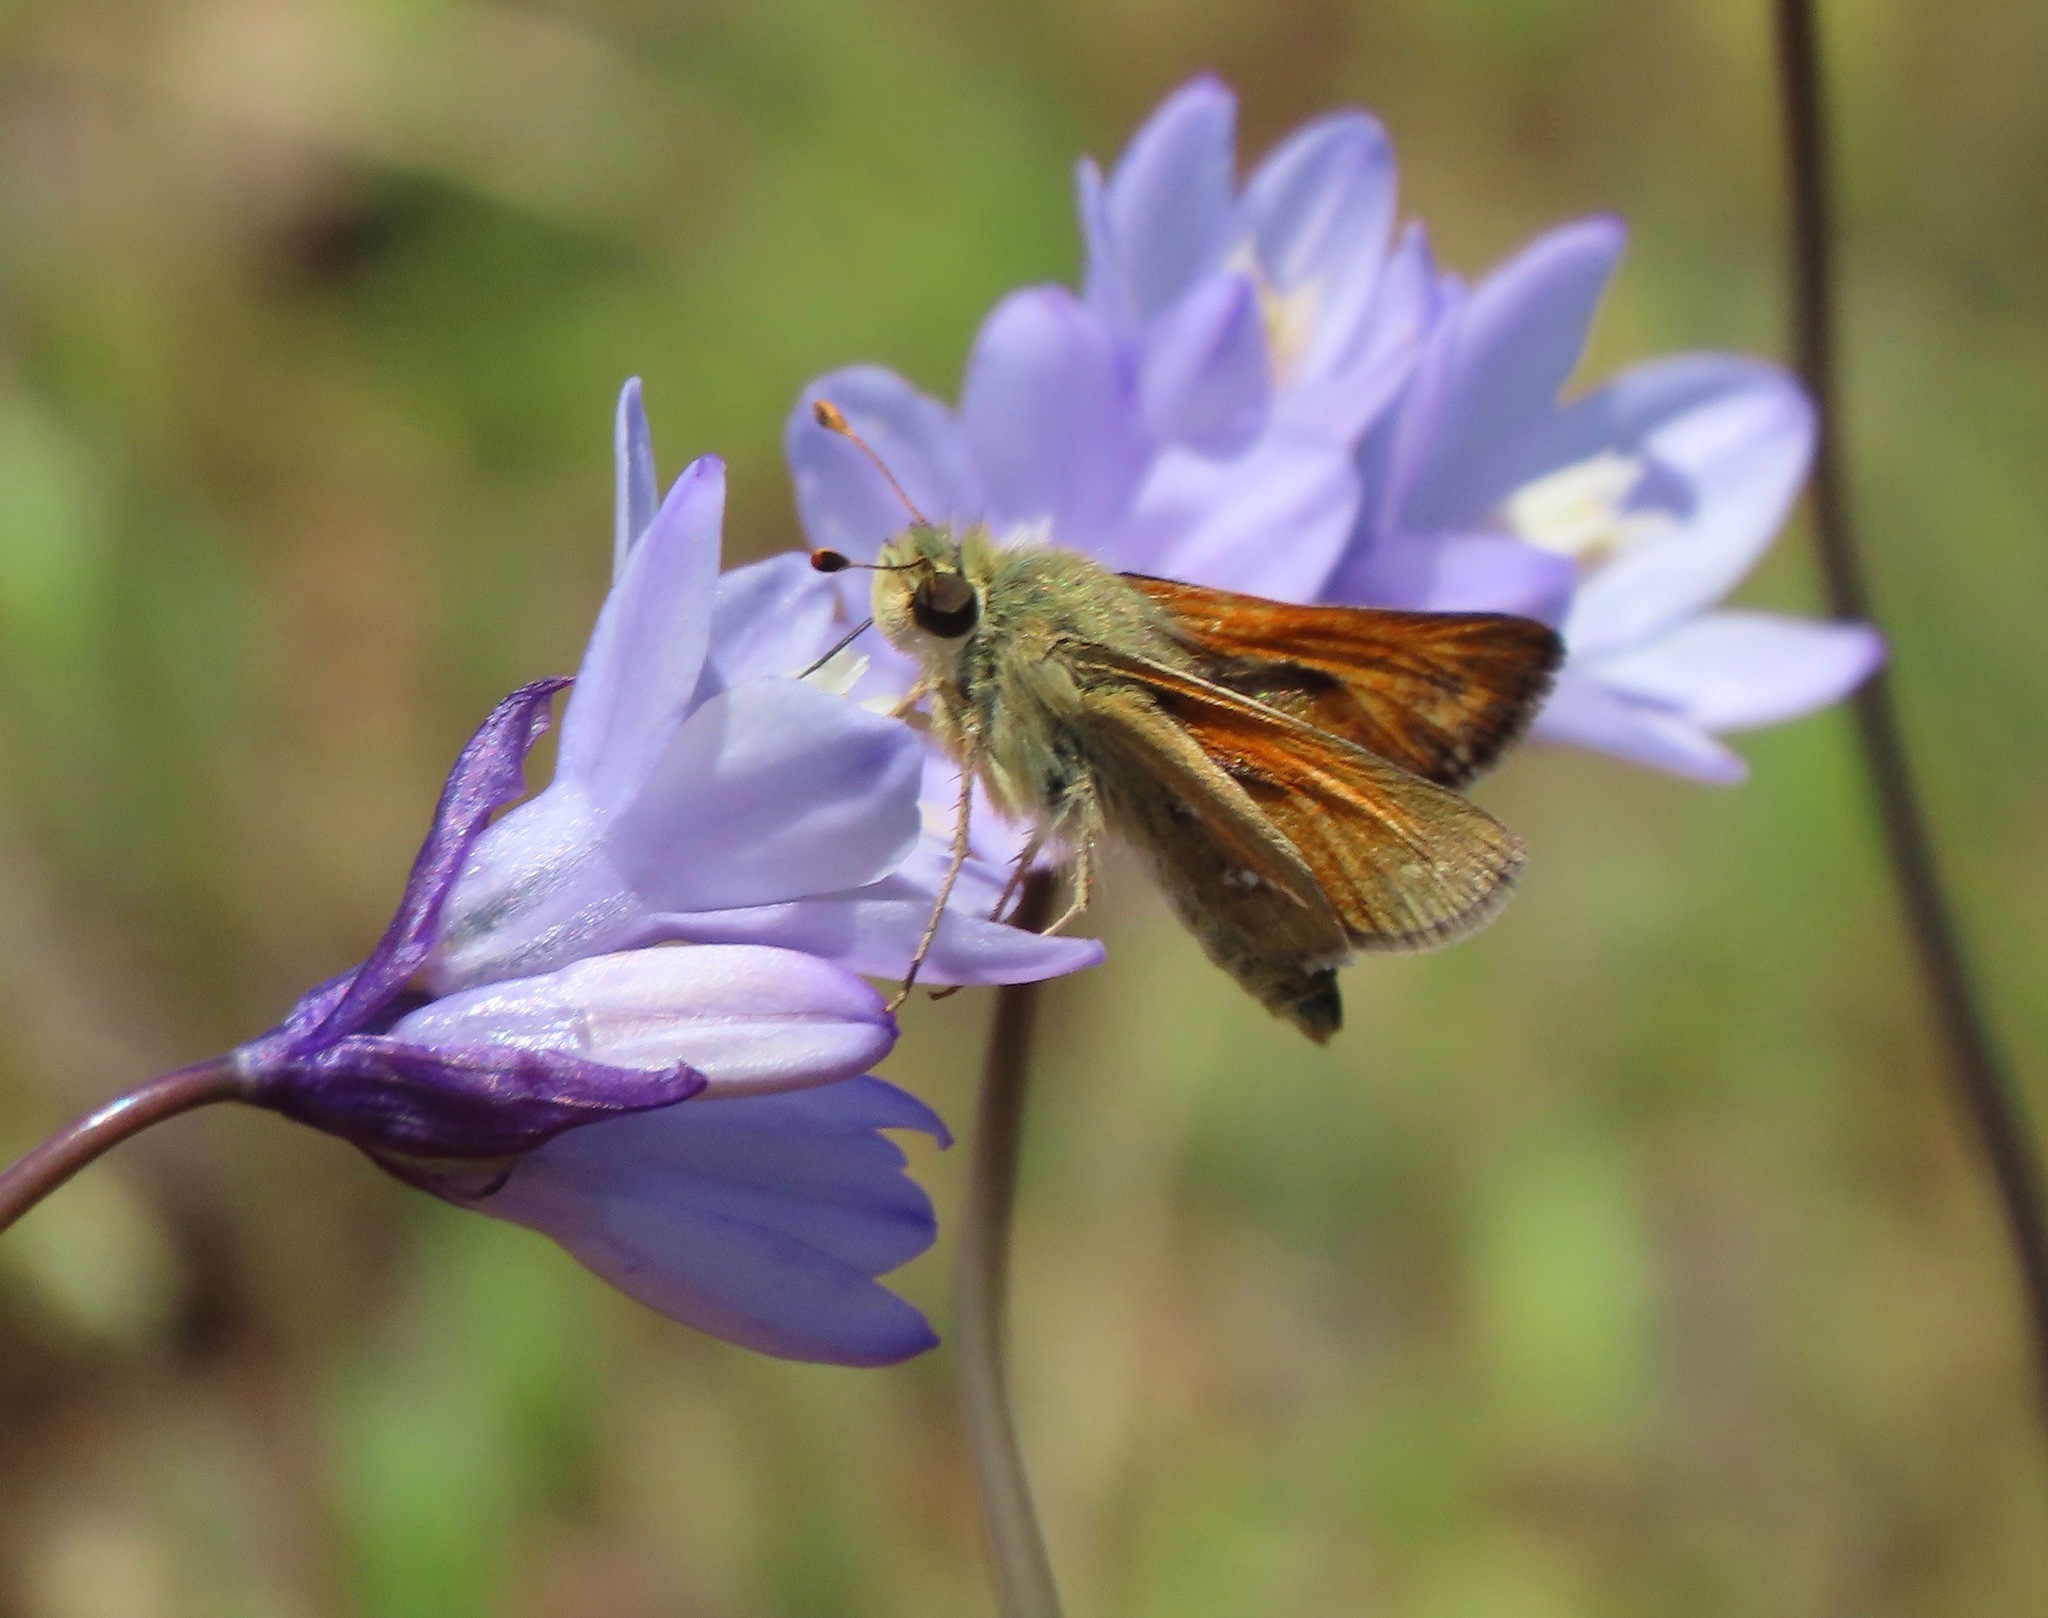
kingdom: Animalia
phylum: Arthropoda
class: Insecta
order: Lepidoptera
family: Hesperiidae
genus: Hesperia
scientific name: Hesperia columbia
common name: Columbian skipper
